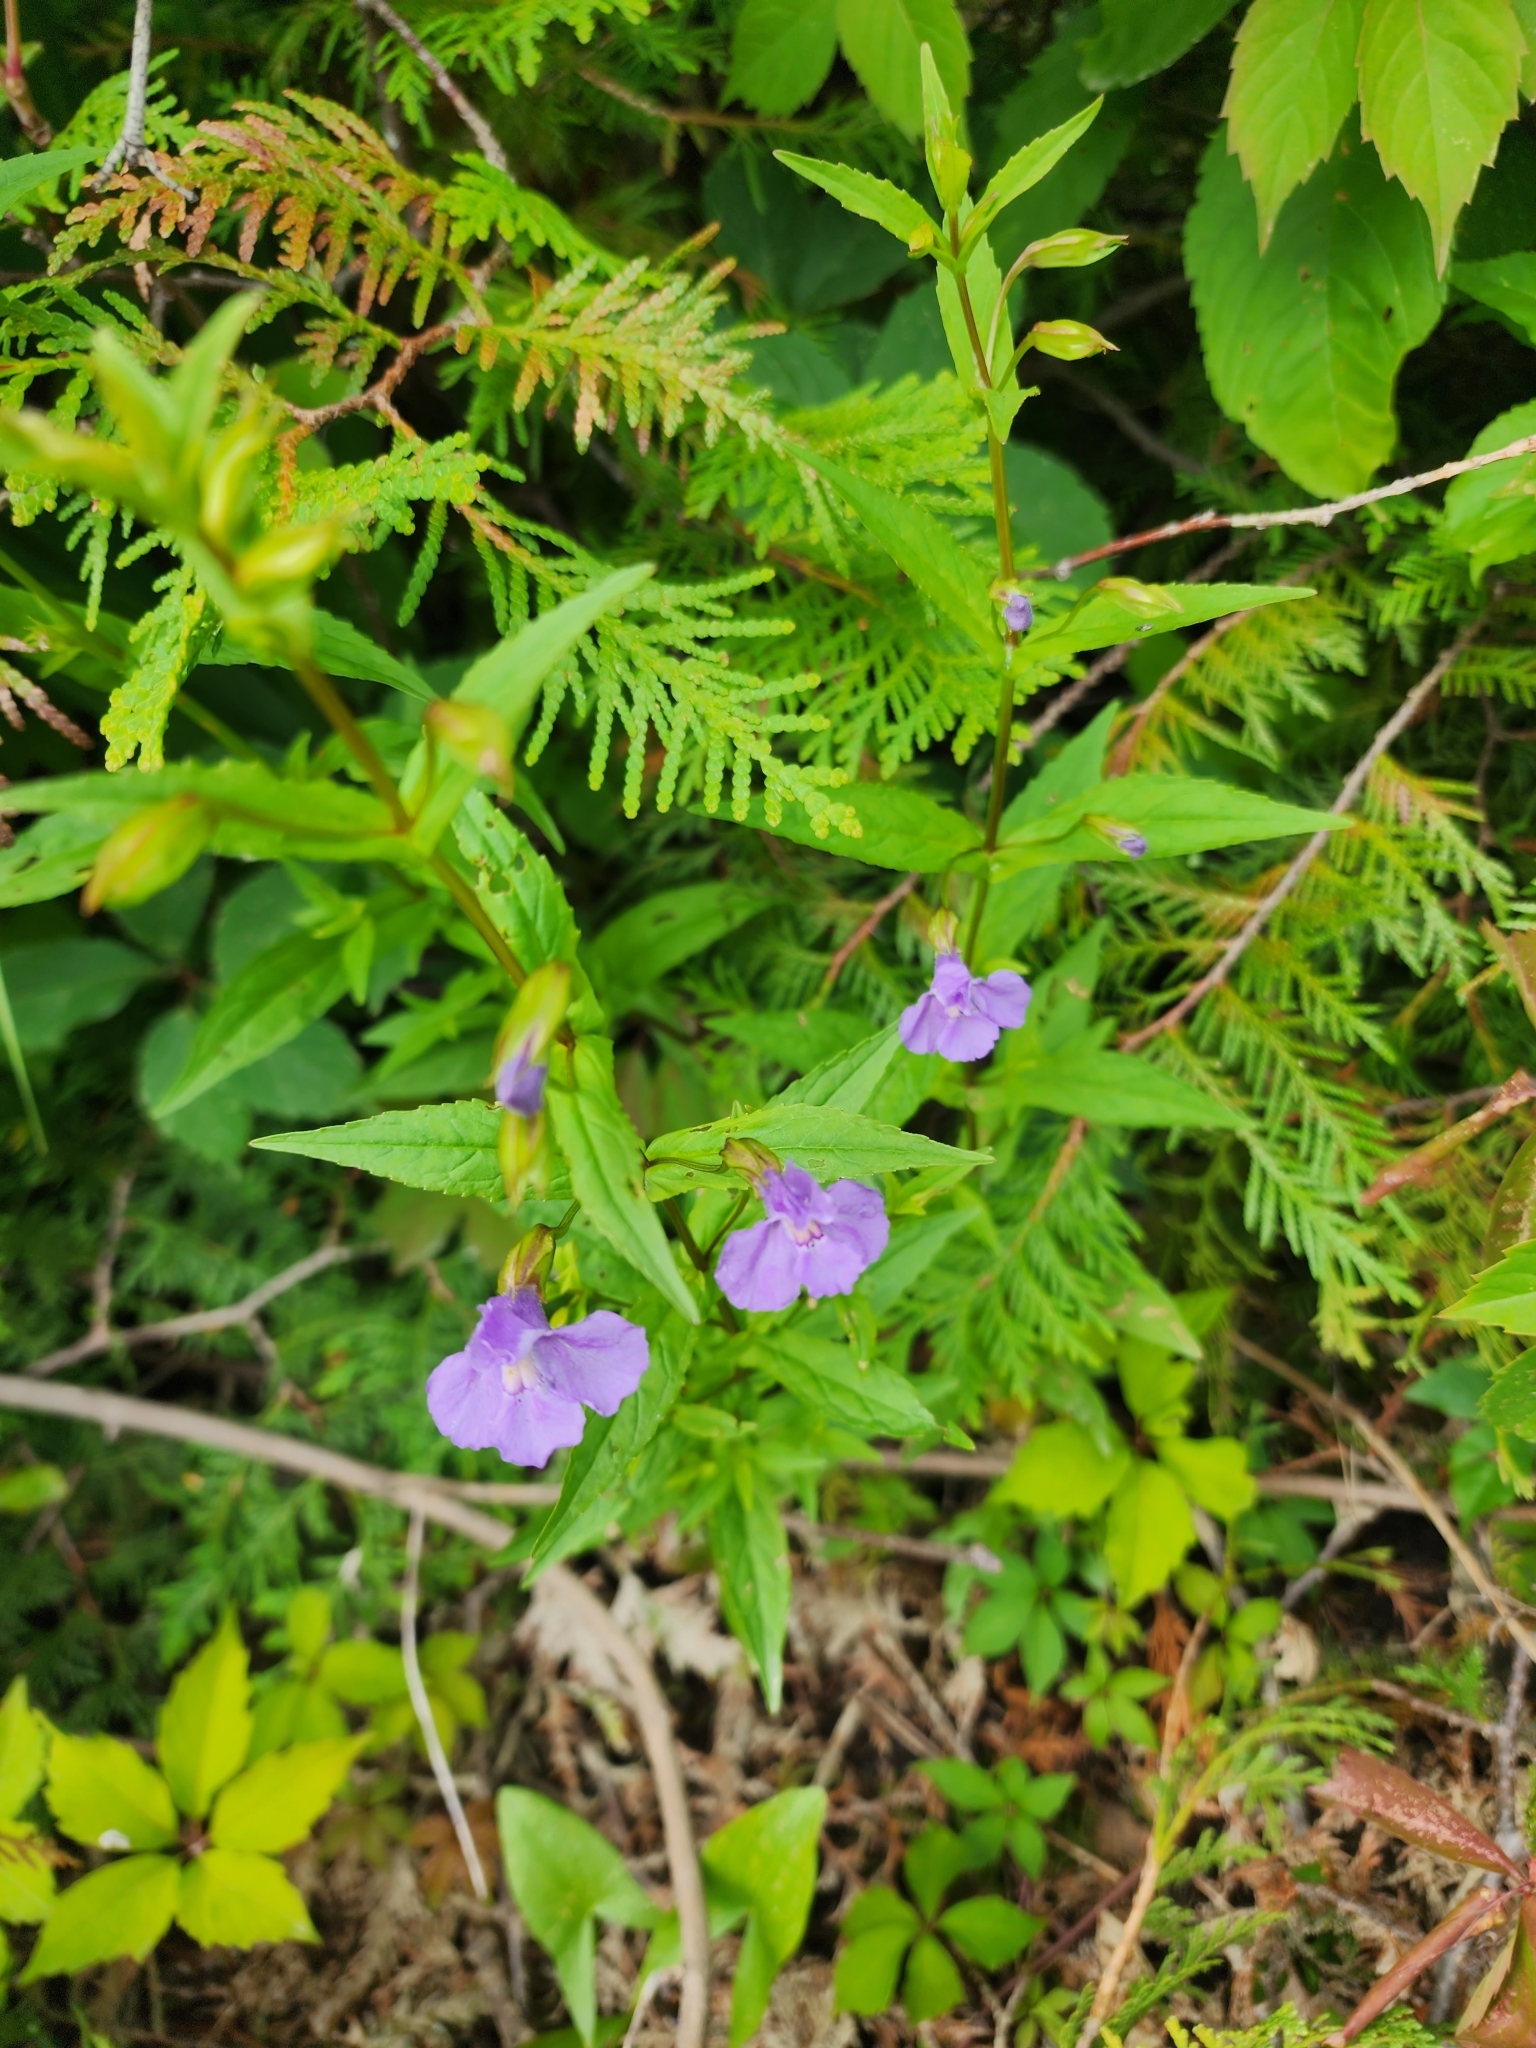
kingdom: Plantae
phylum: Tracheophyta
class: Magnoliopsida
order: Lamiales
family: Phrymaceae
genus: Mimulus
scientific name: Mimulus ringens
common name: Allegheny monkeyflower
